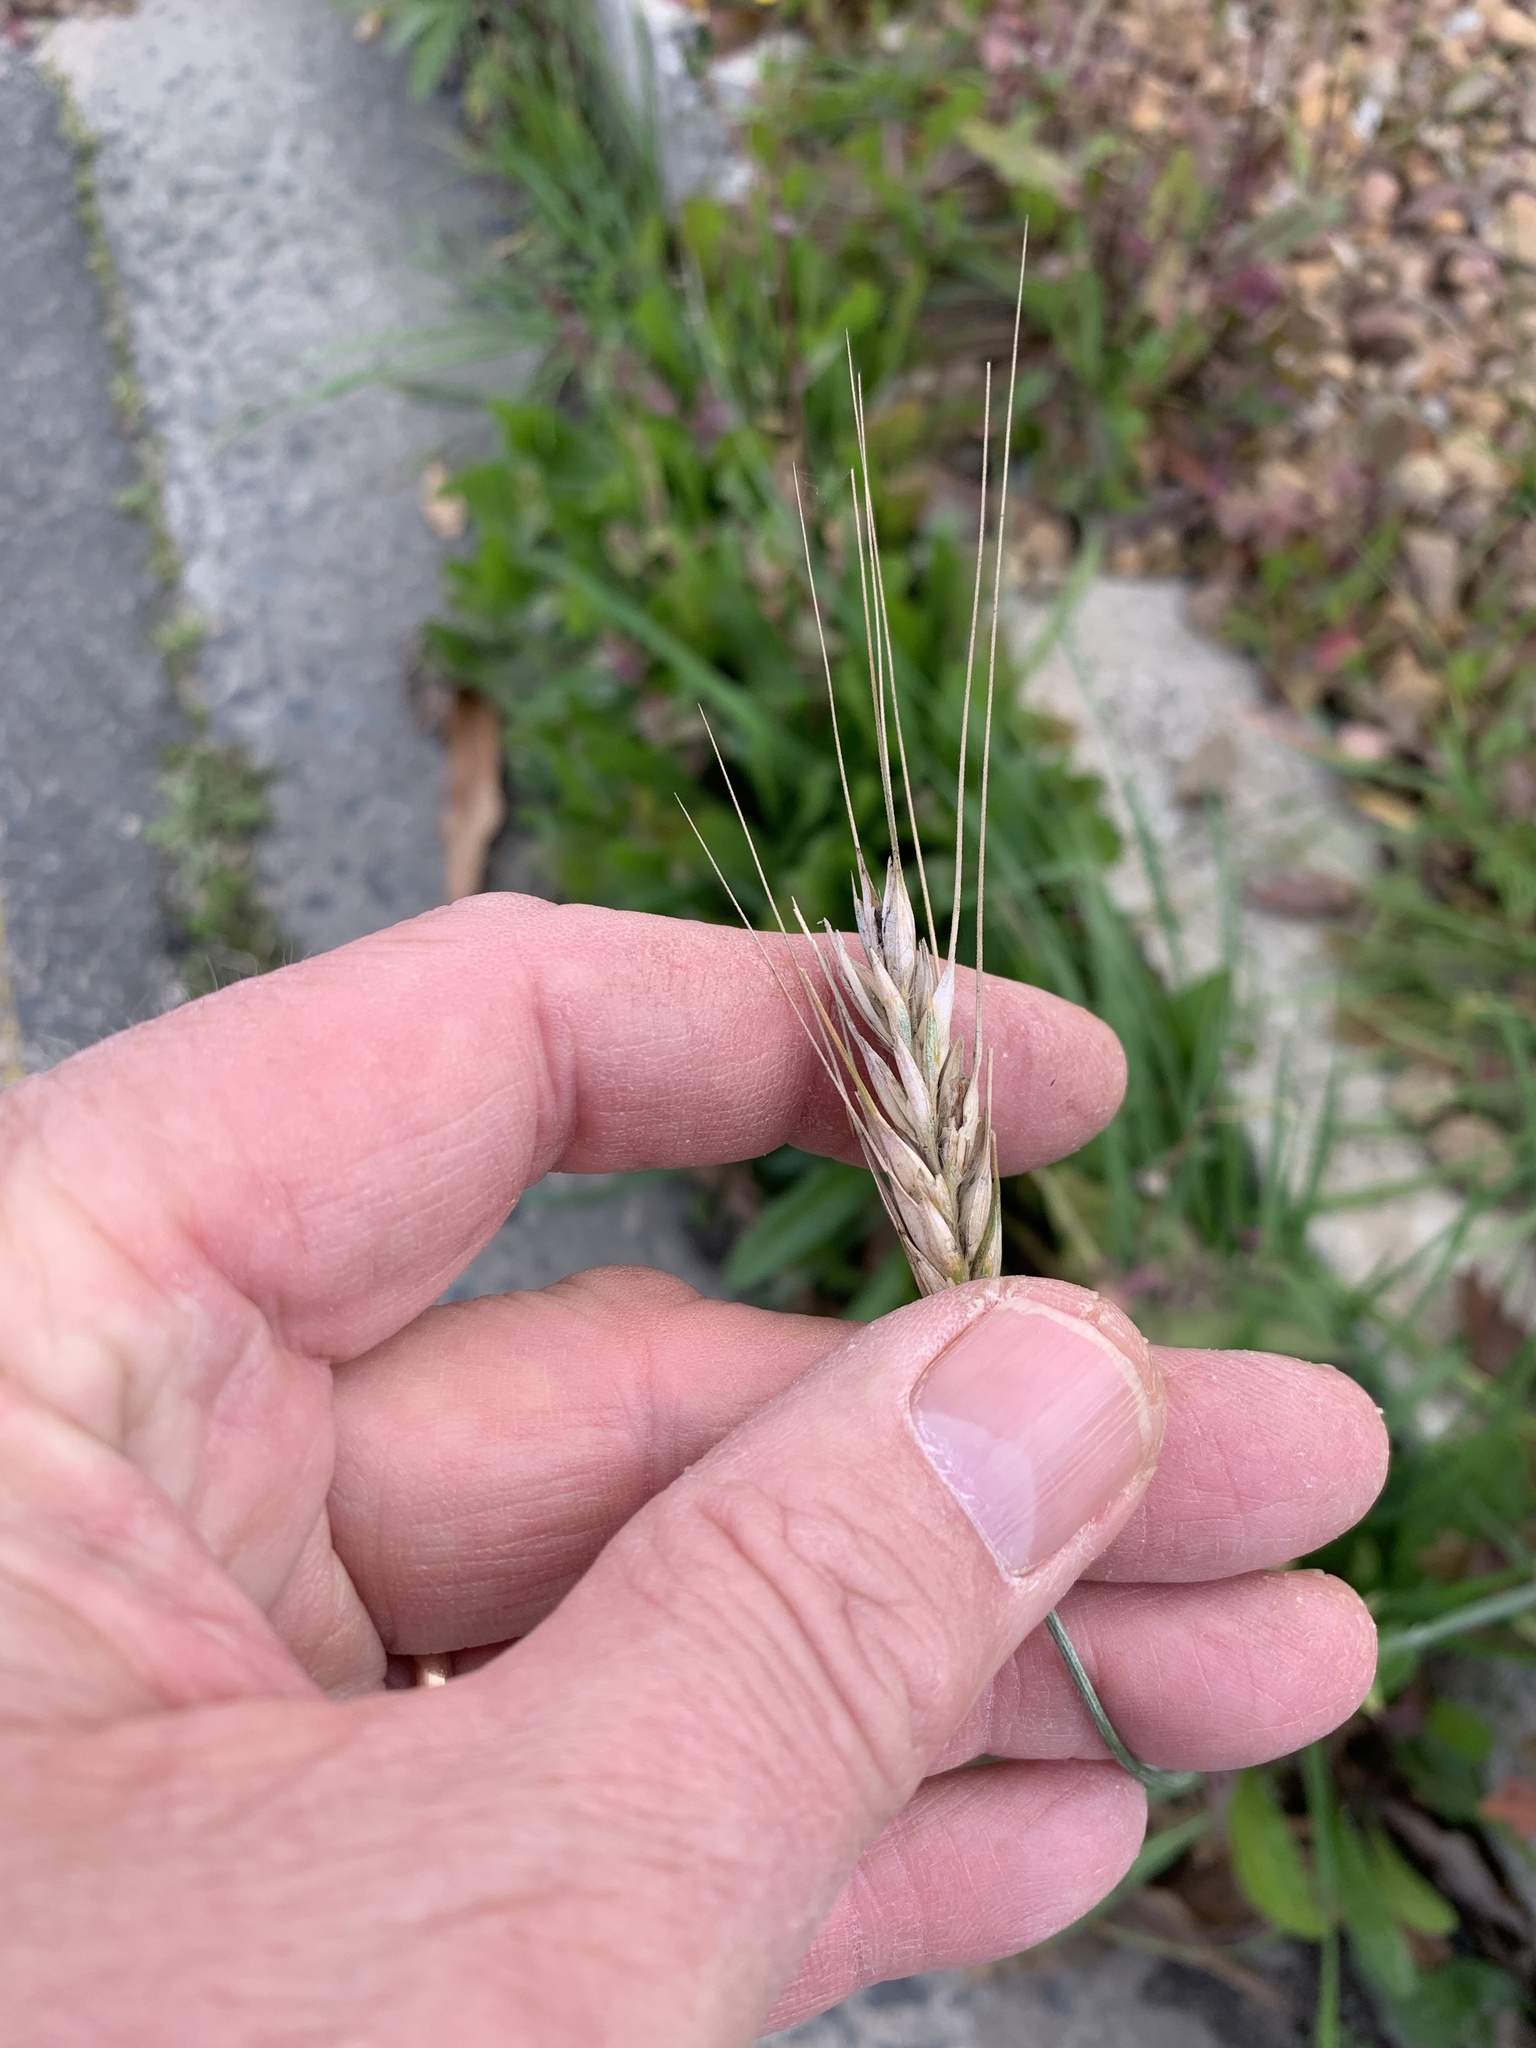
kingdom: Plantae
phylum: Tracheophyta
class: Liliopsida
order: Poales
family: Poaceae
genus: Triticum
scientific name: Triticum aestivum
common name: Common wheat
